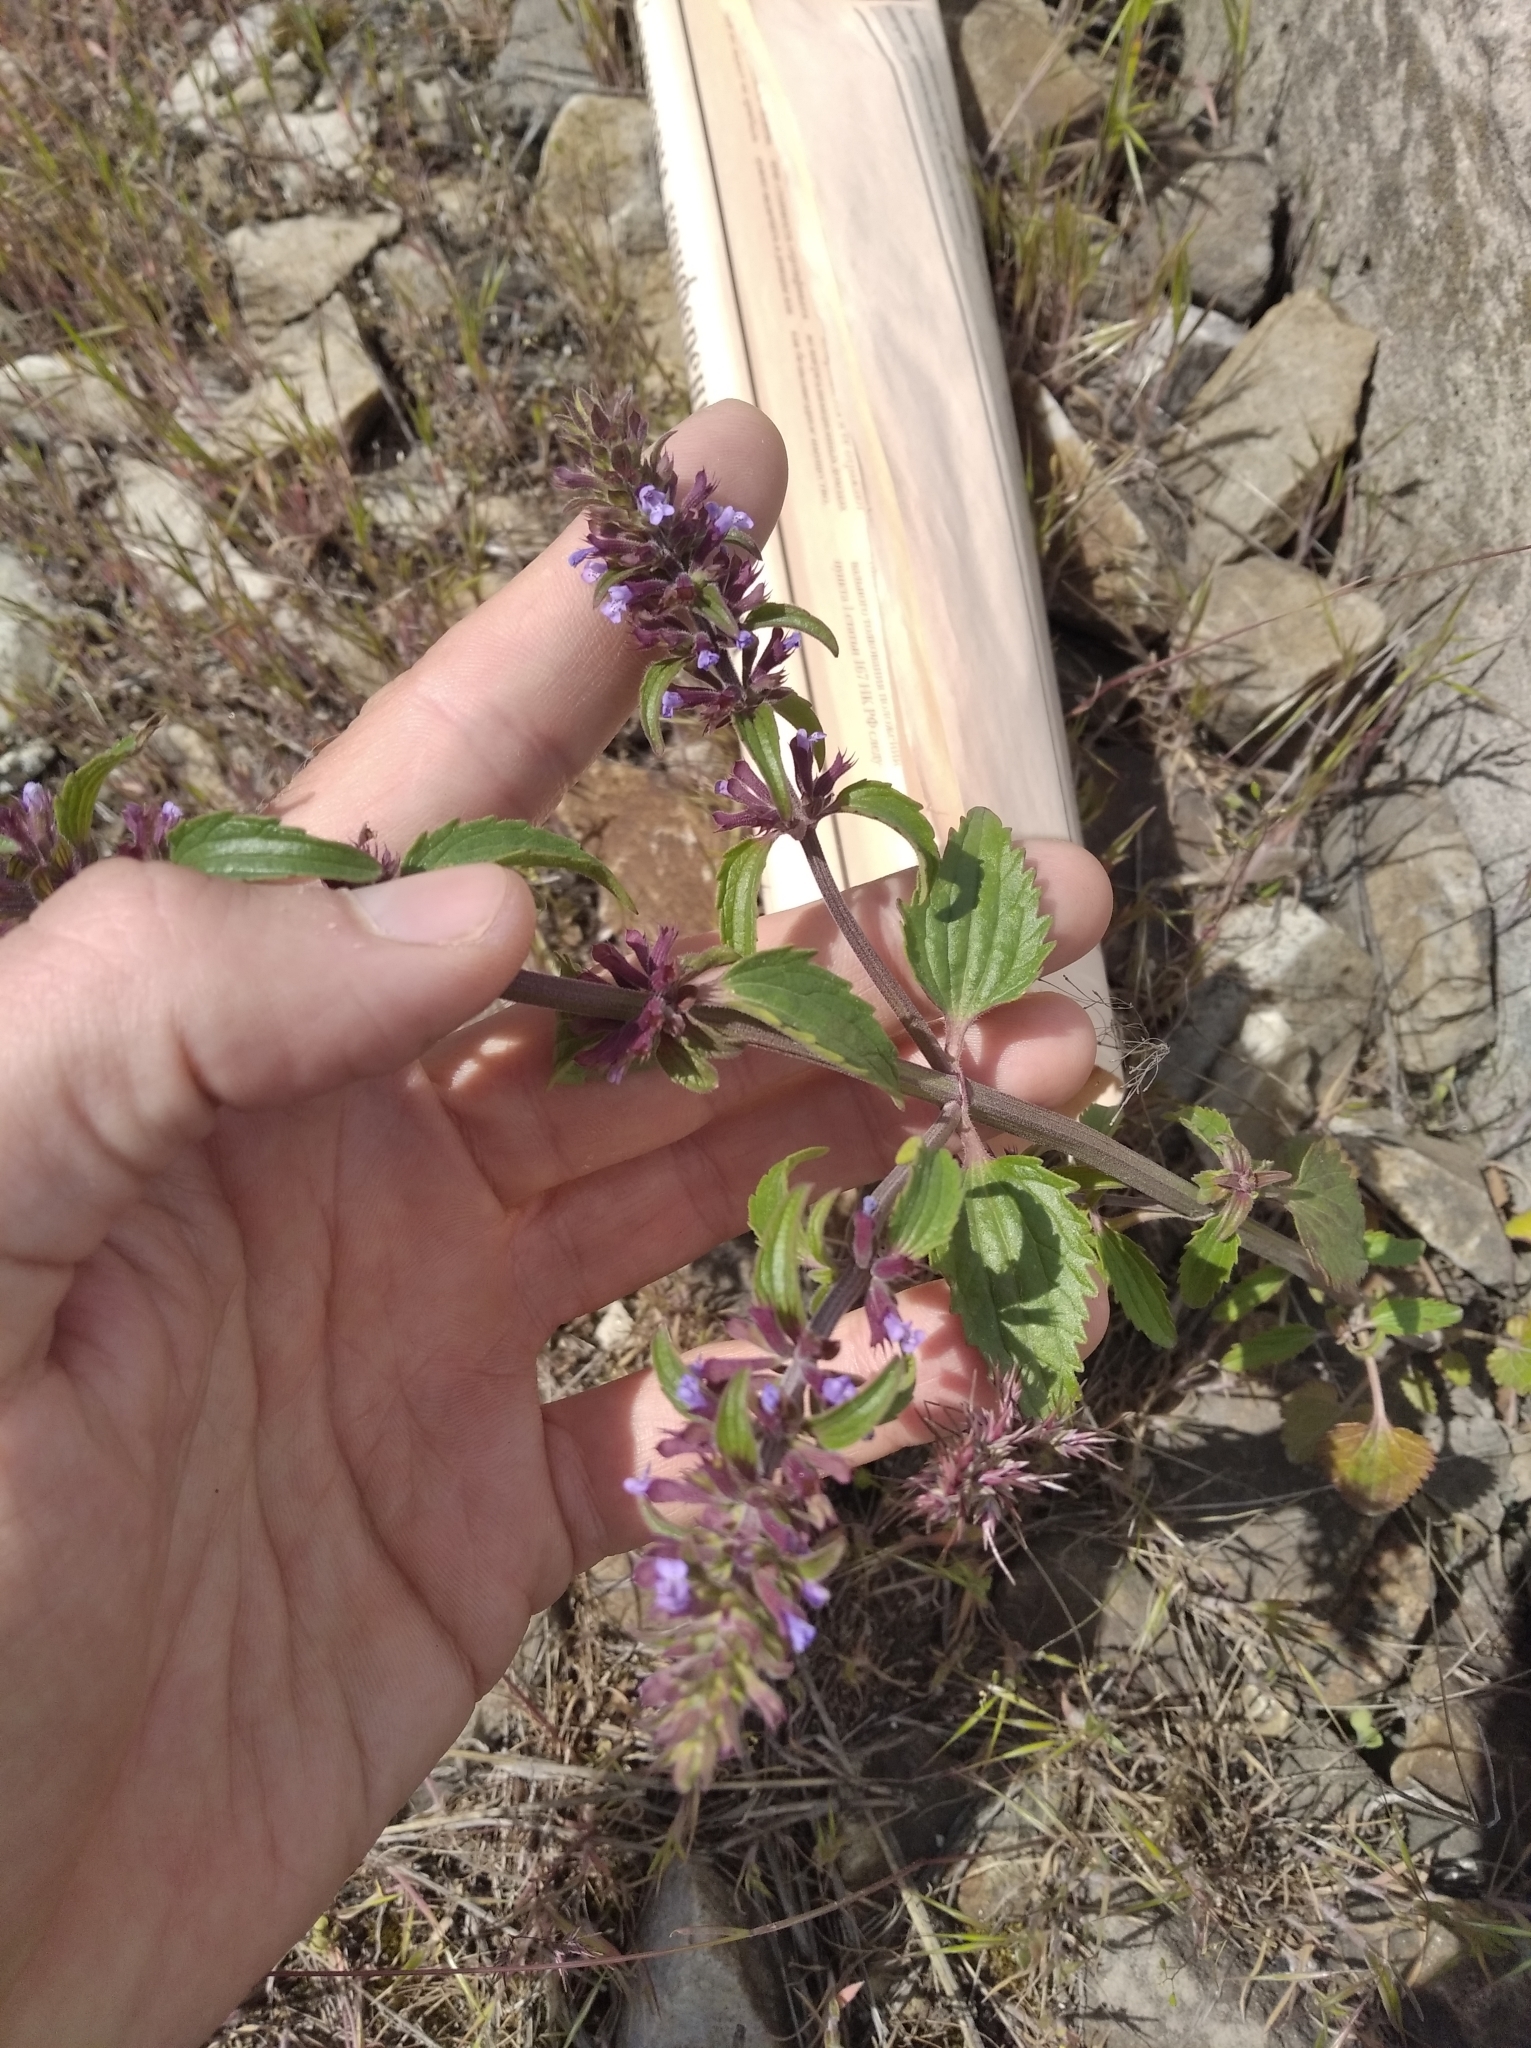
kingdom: Plantae
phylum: Tracheophyta
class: Magnoliopsida
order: Lamiales
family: Lamiaceae
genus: Dracocephalum
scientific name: Dracocephalum thymiflorum
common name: Thymeleaf dragonhead
